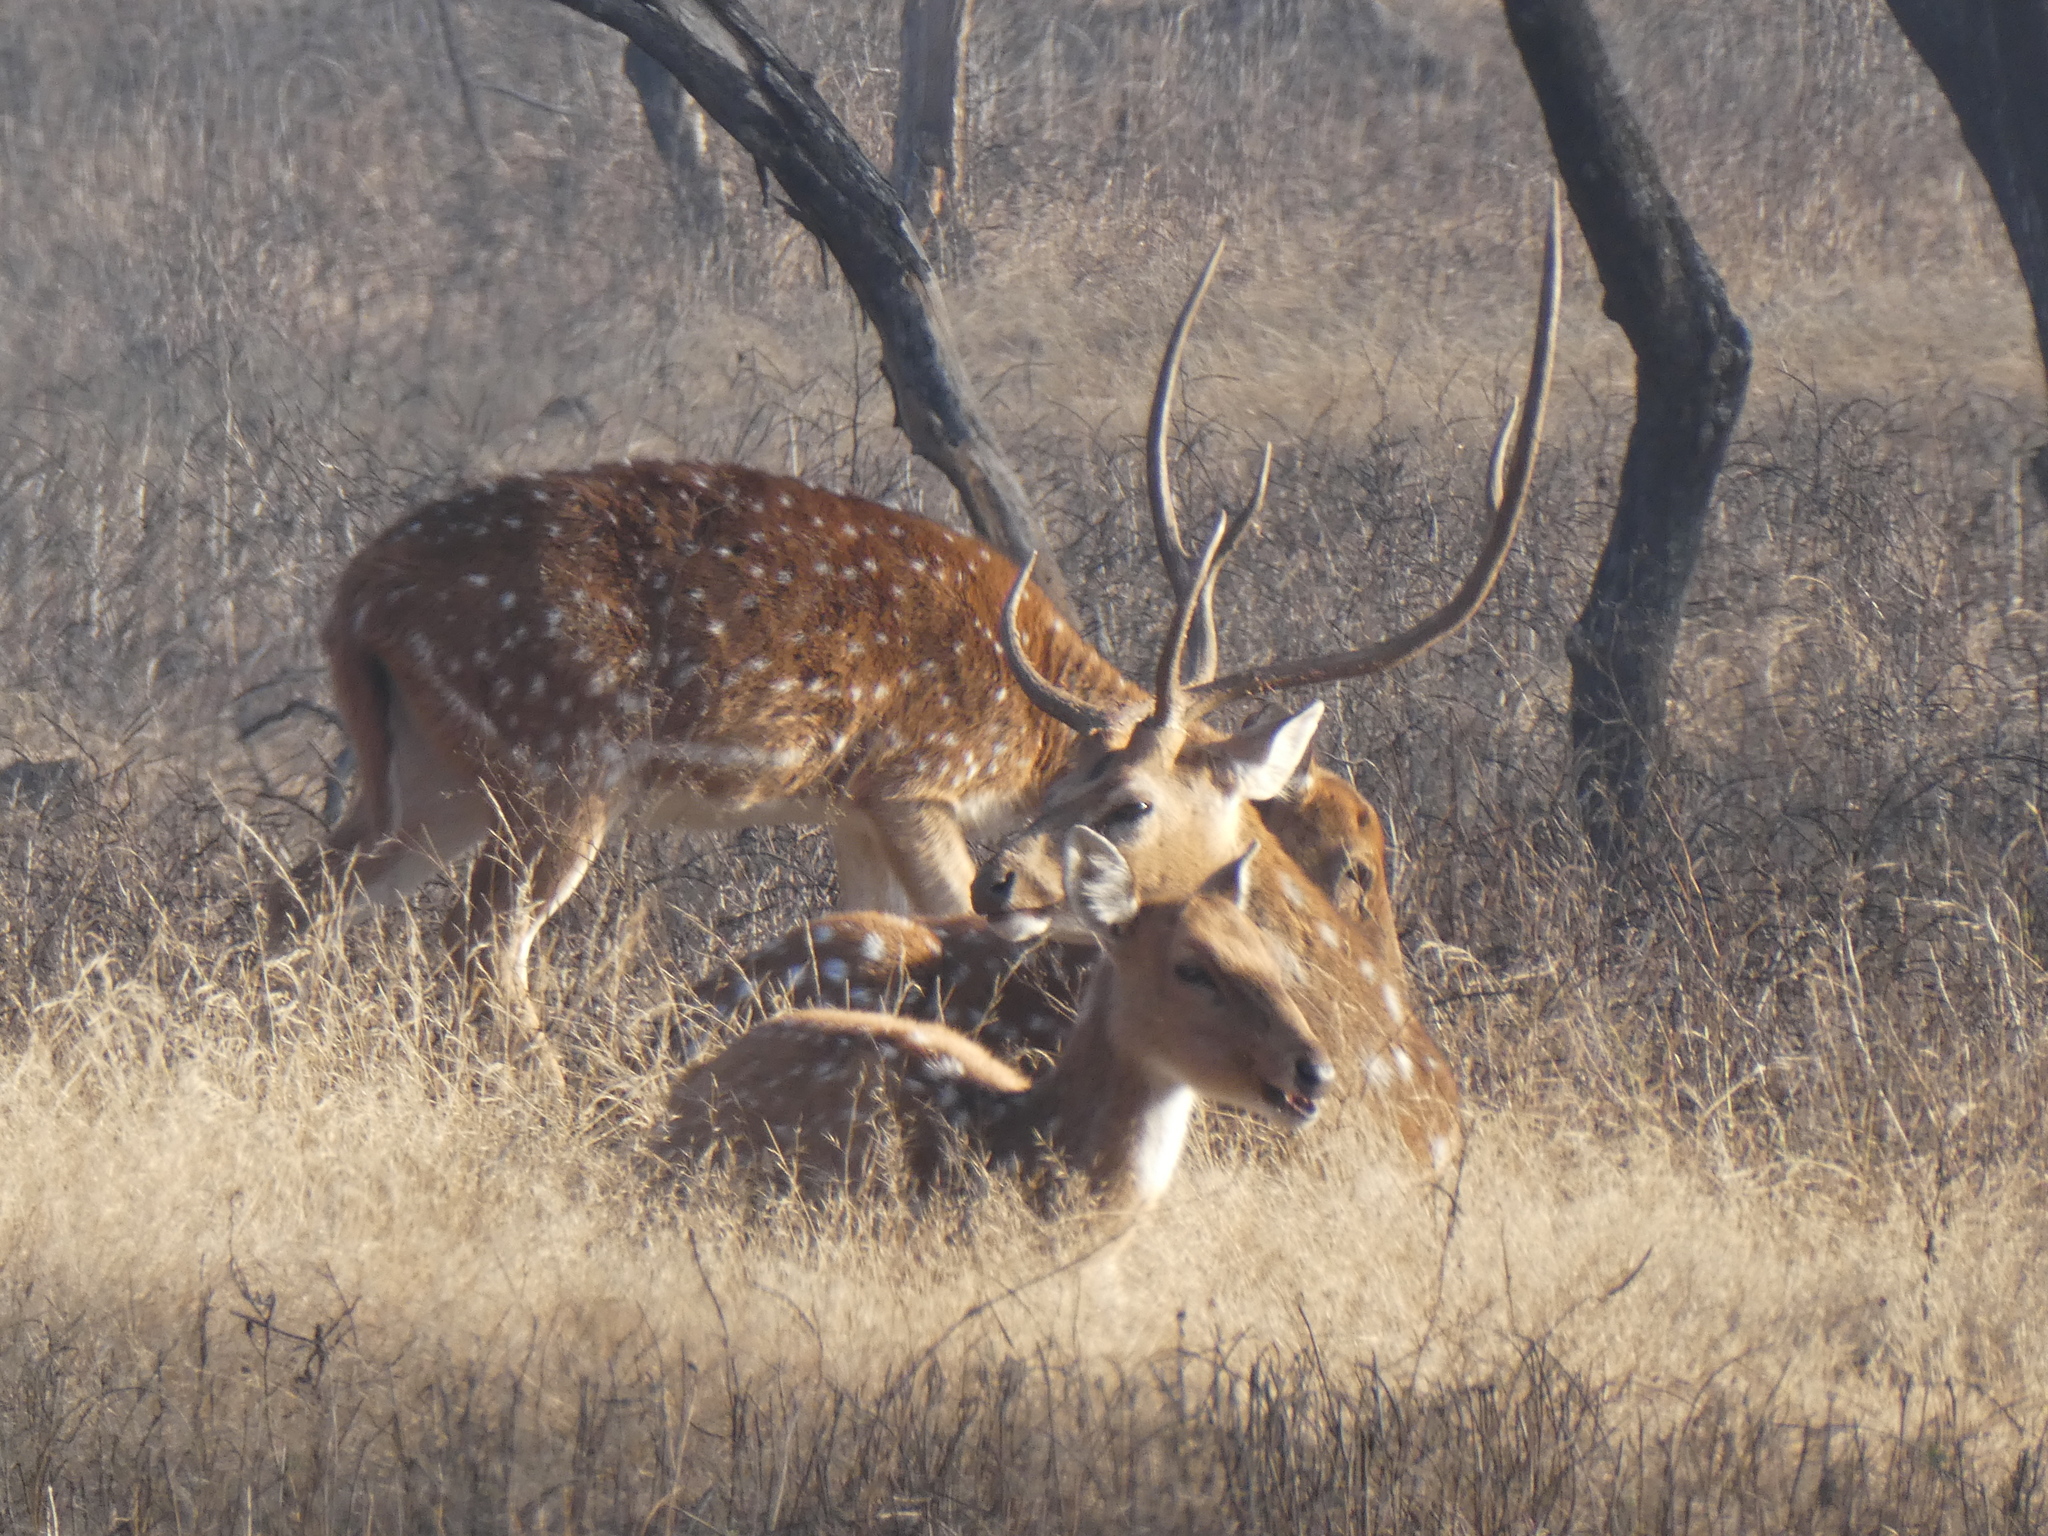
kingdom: Animalia
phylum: Chordata
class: Mammalia
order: Artiodactyla
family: Cervidae
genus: Axis
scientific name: Axis axis
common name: Chital
